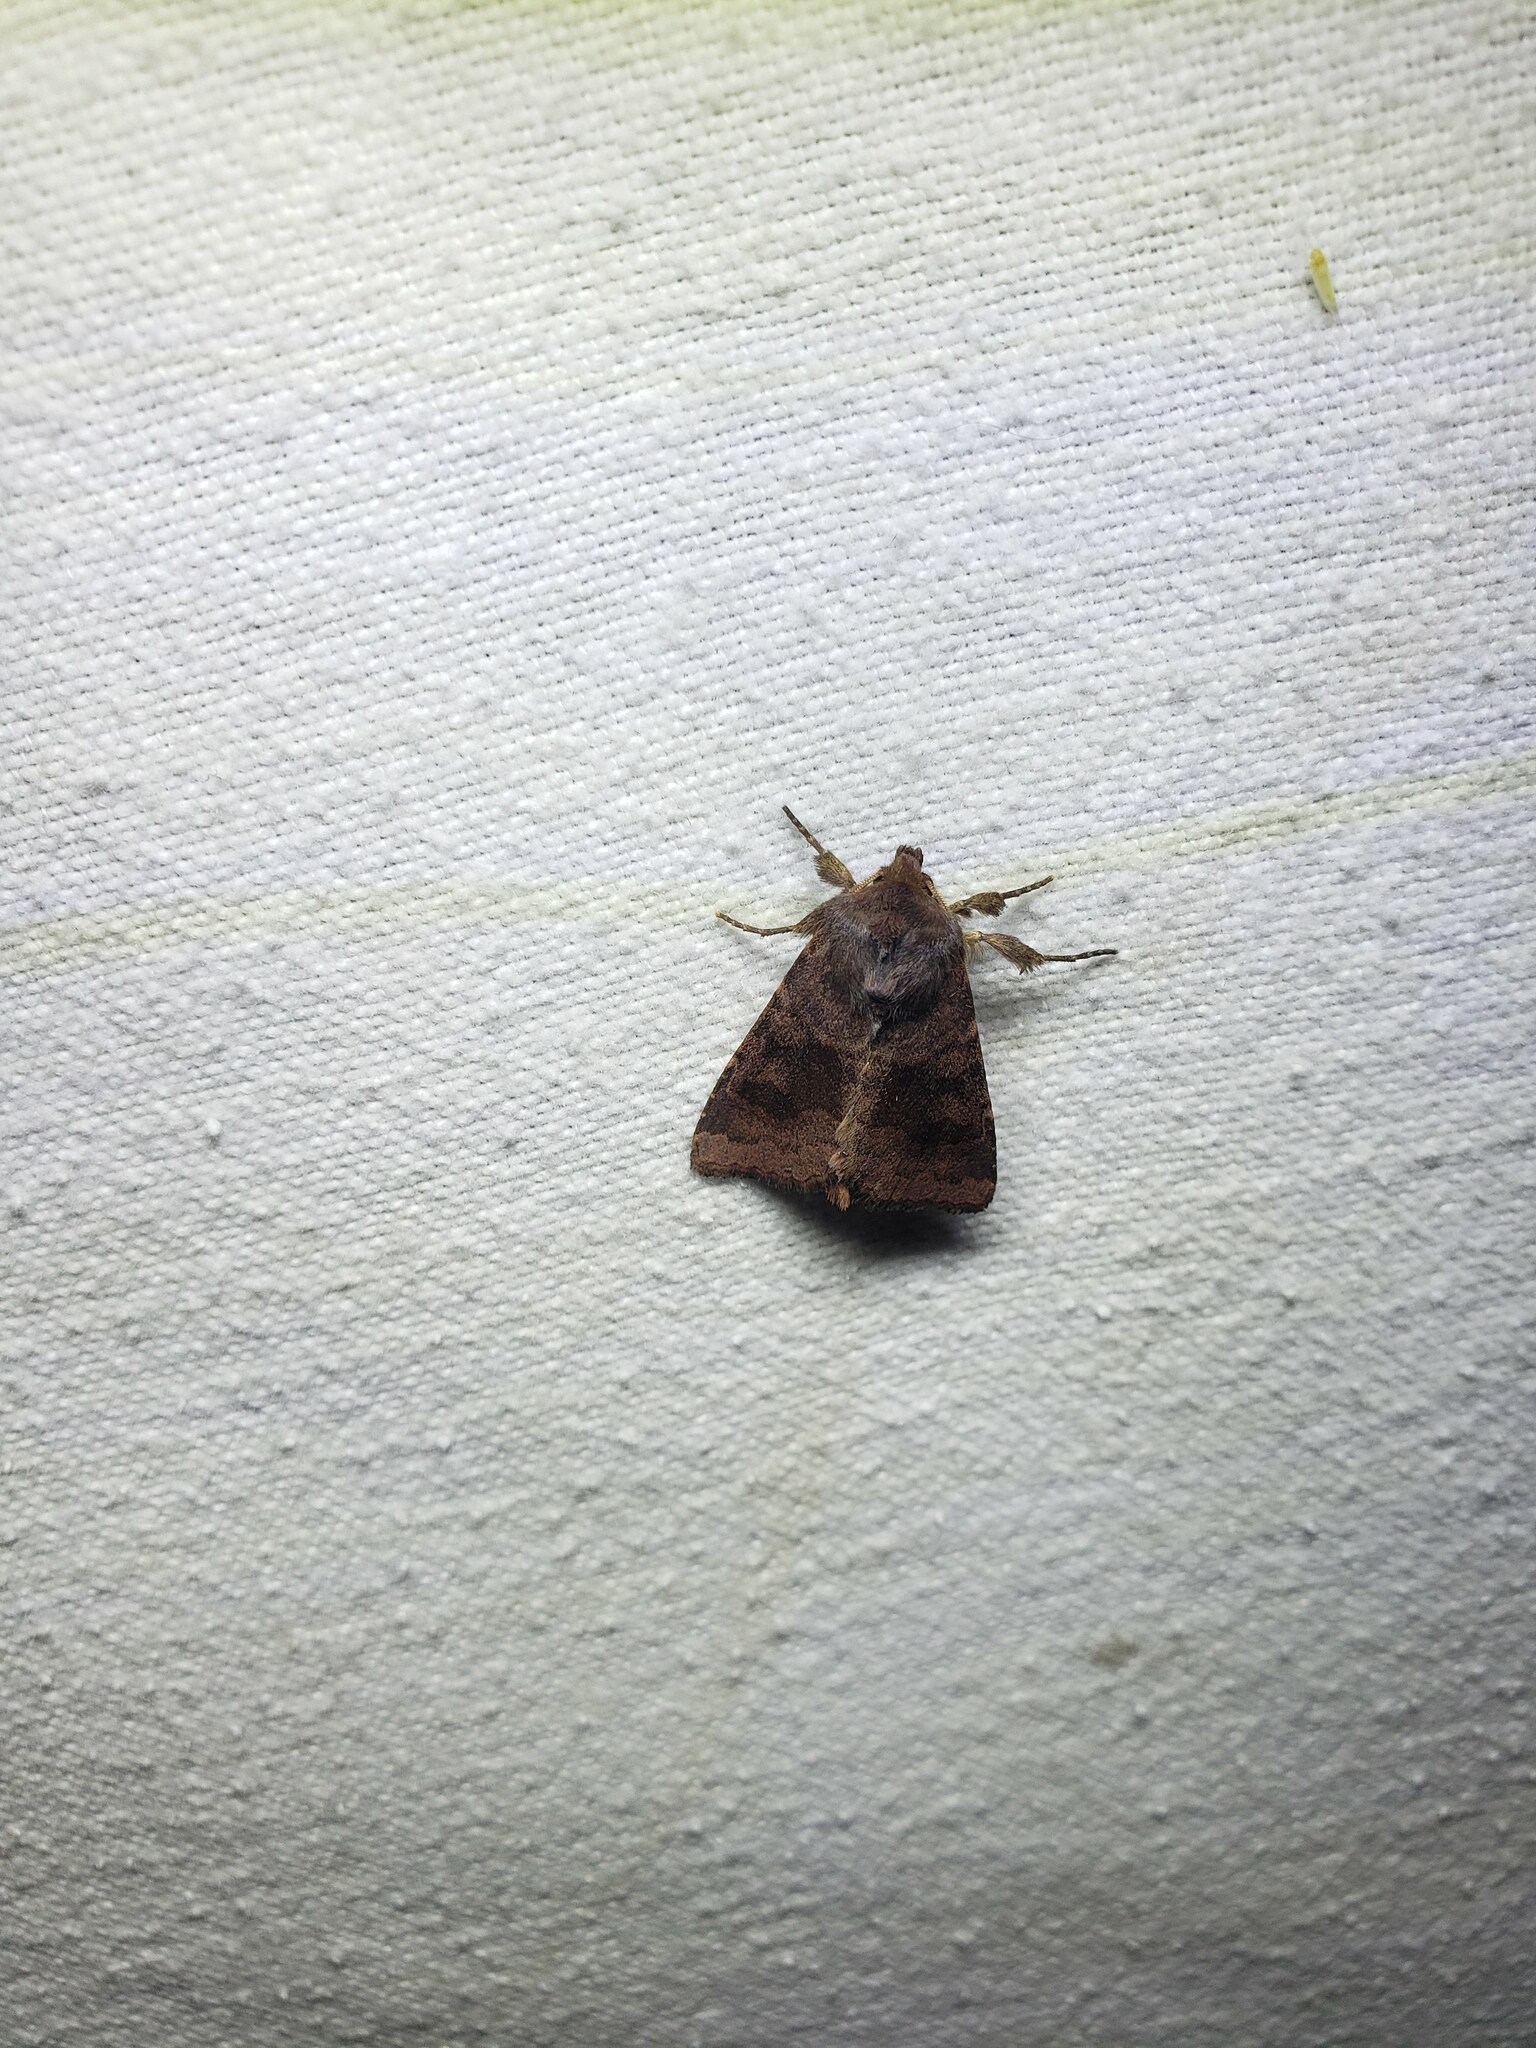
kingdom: Animalia
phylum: Arthropoda
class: Insecta
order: Lepidoptera
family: Noctuidae
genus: Nephelodes
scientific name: Nephelodes minians
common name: Bronzed cutworm
